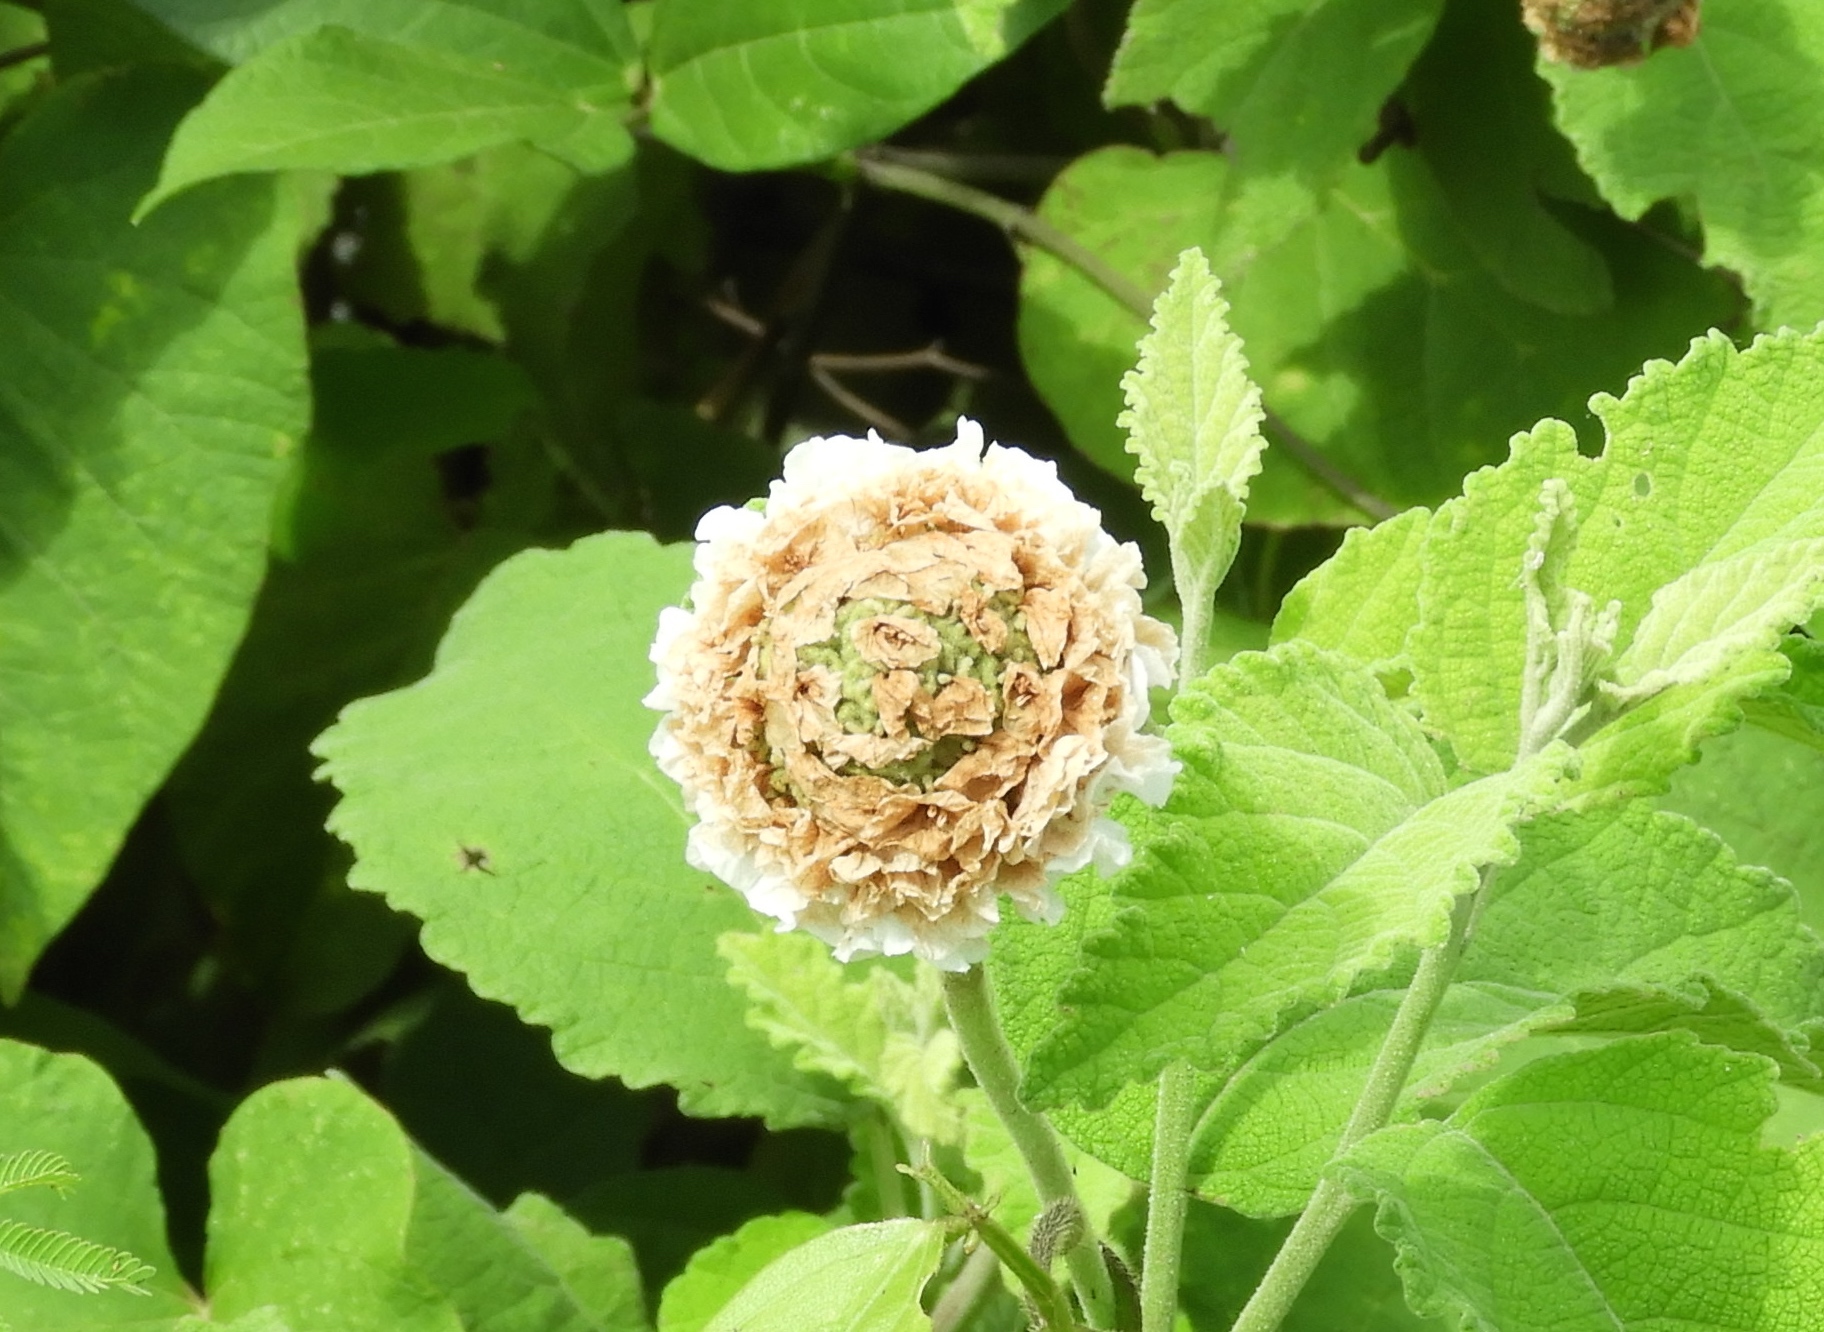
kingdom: Plantae
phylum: Tracheophyta
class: Magnoliopsida
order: Boraginales
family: Cordiaceae
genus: Varronia
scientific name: Varronia bullata
